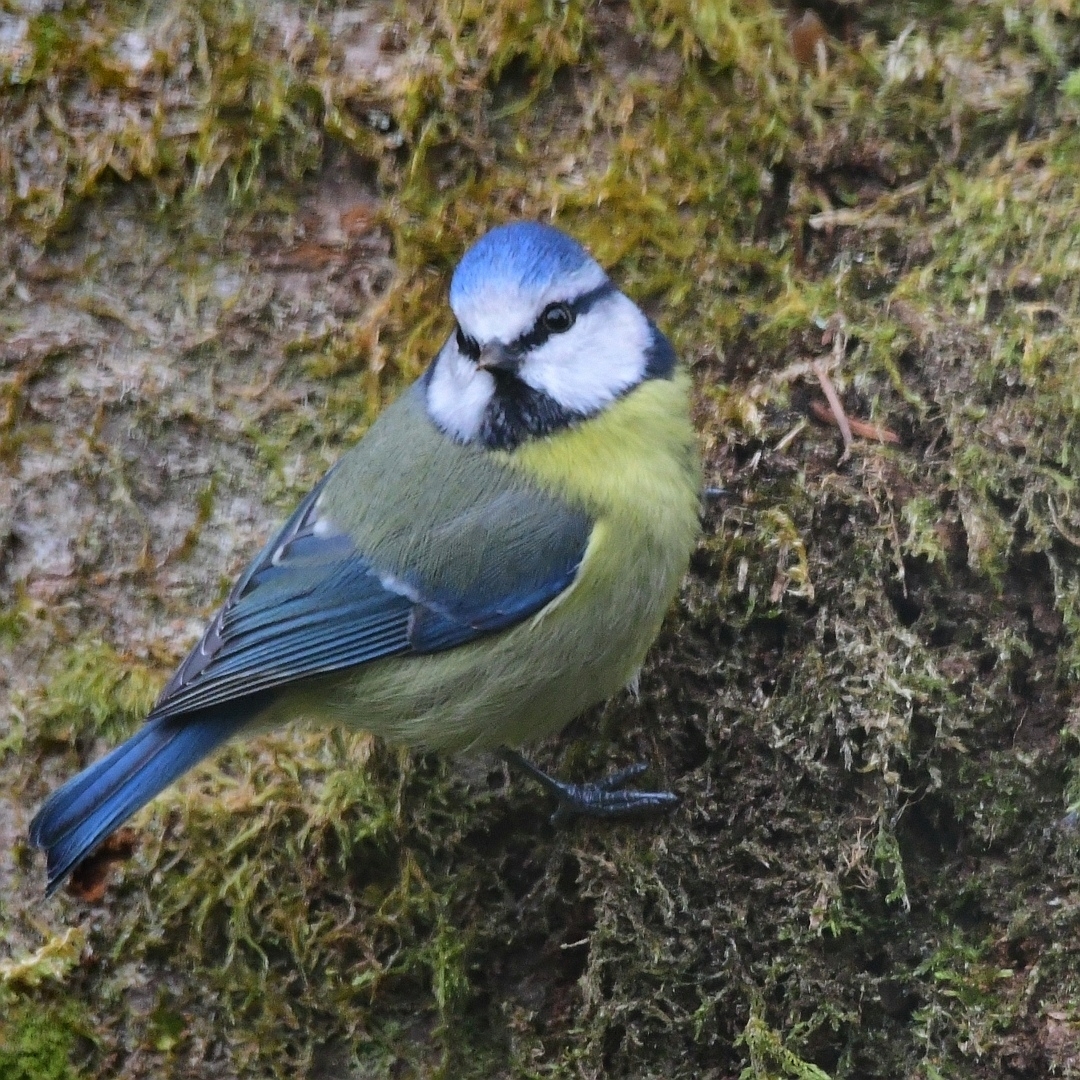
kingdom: Animalia
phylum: Chordata
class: Aves
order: Passeriformes
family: Paridae
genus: Cyanistes
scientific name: Cyanistes caeruleus
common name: Eurasian blue tit
